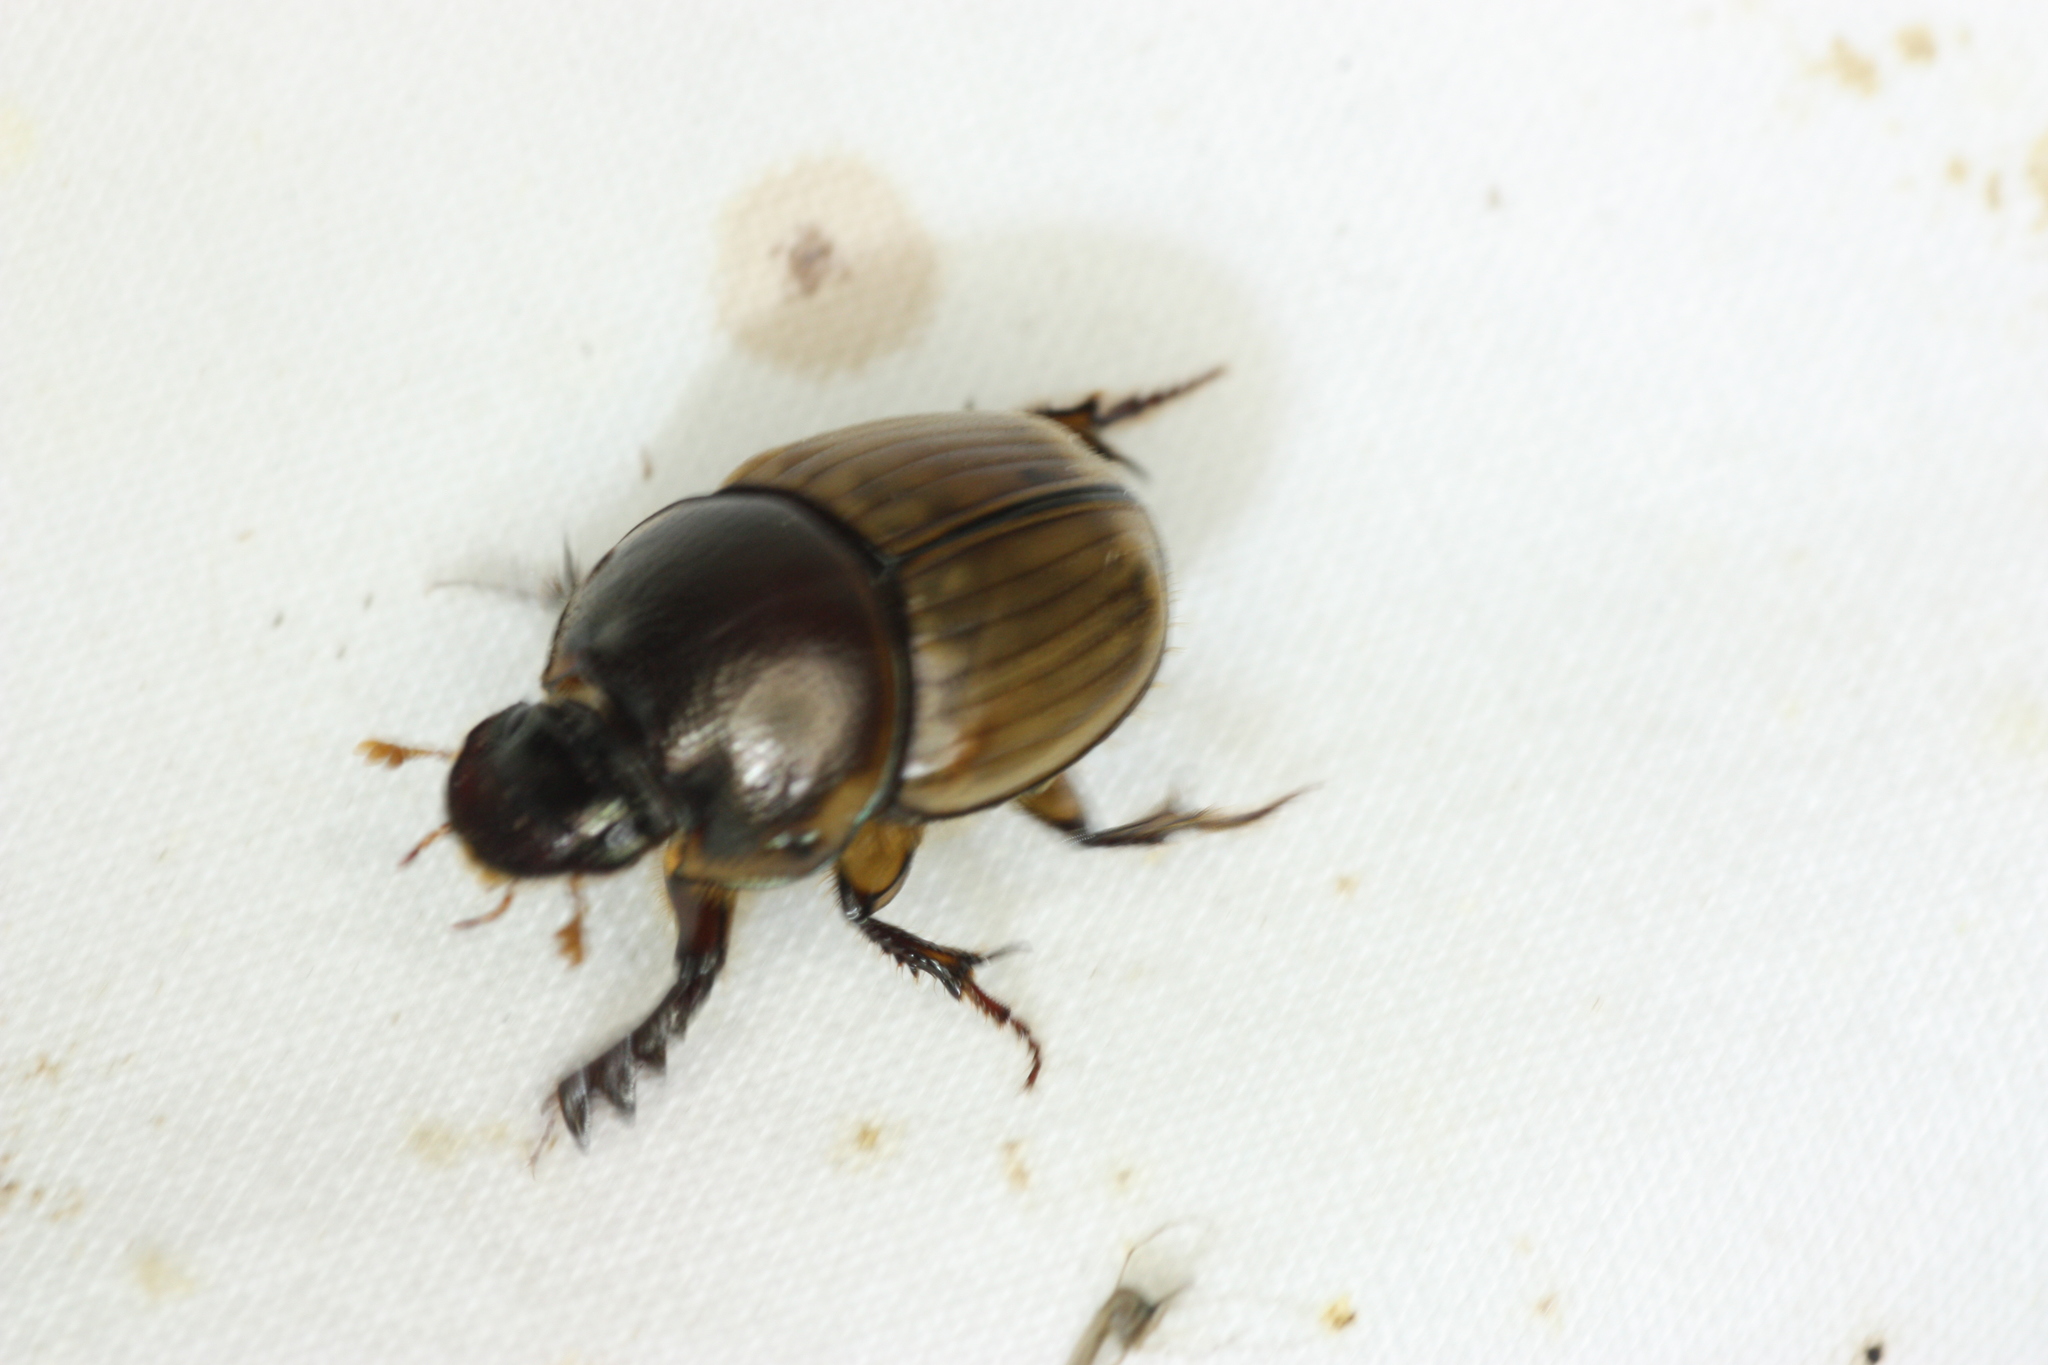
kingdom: Animalia
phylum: Arthropoda
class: Insecta
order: Coleoptera
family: Scarabaeidae
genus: Digitonthophagus
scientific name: Digitonthophagus gazella
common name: Brown dung beetle
